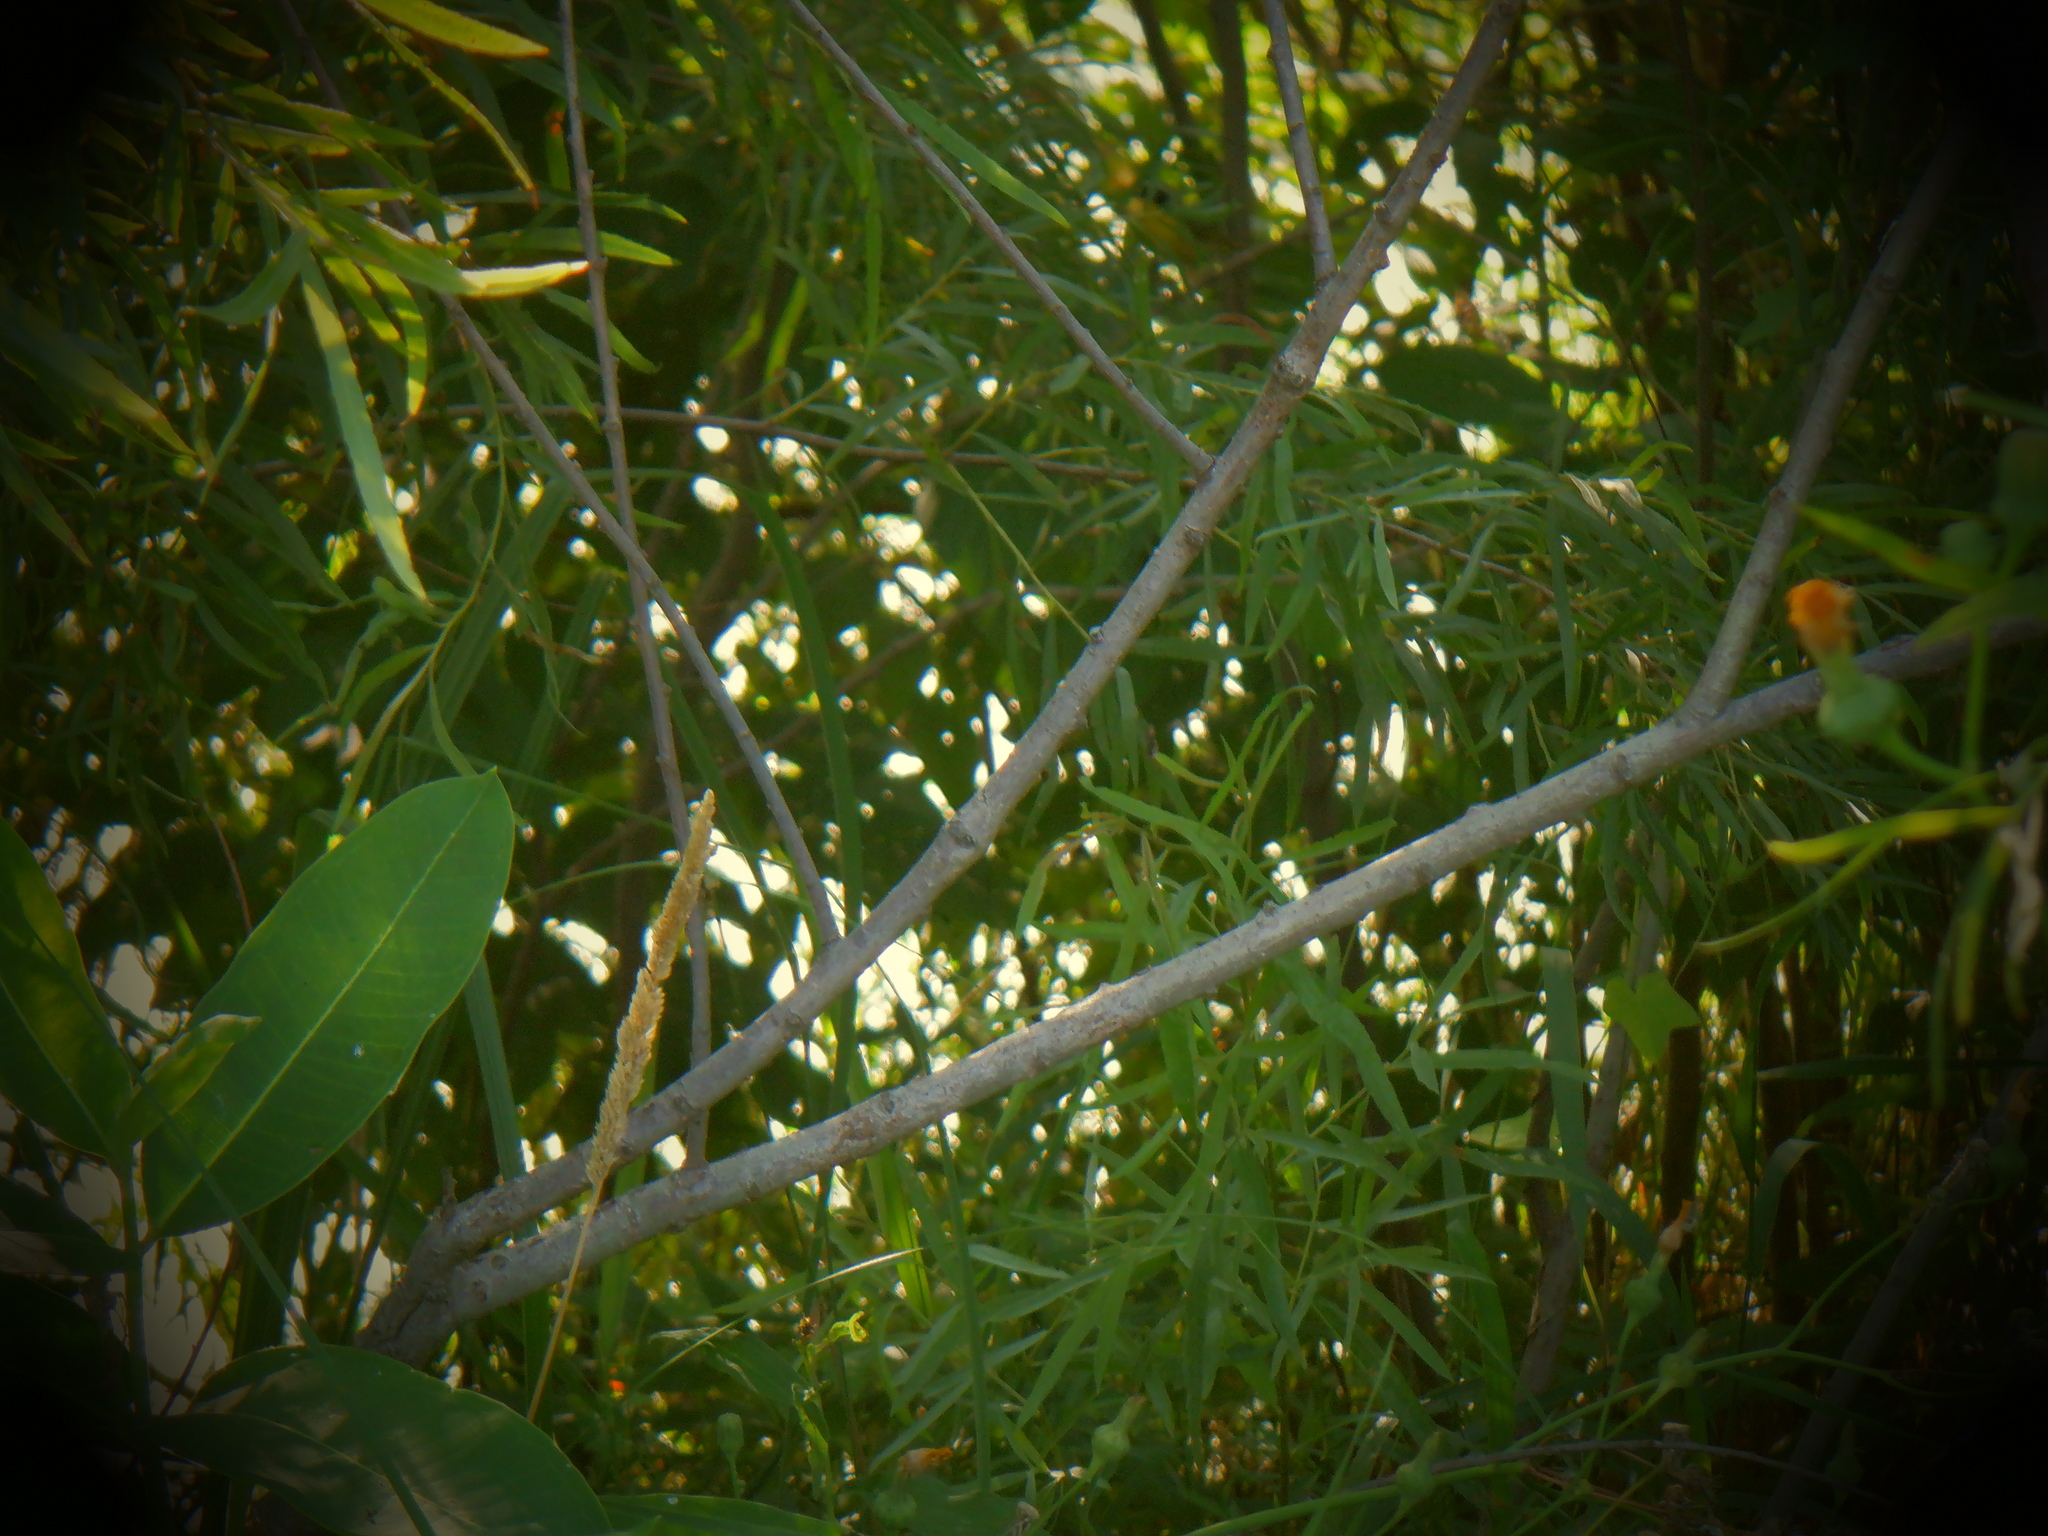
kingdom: Plantae
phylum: Tracheophyta
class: Liliopsida
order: Poales
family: Poaceae
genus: Phalaris
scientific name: Phalaris arundinacea
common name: Reed canary-grass
